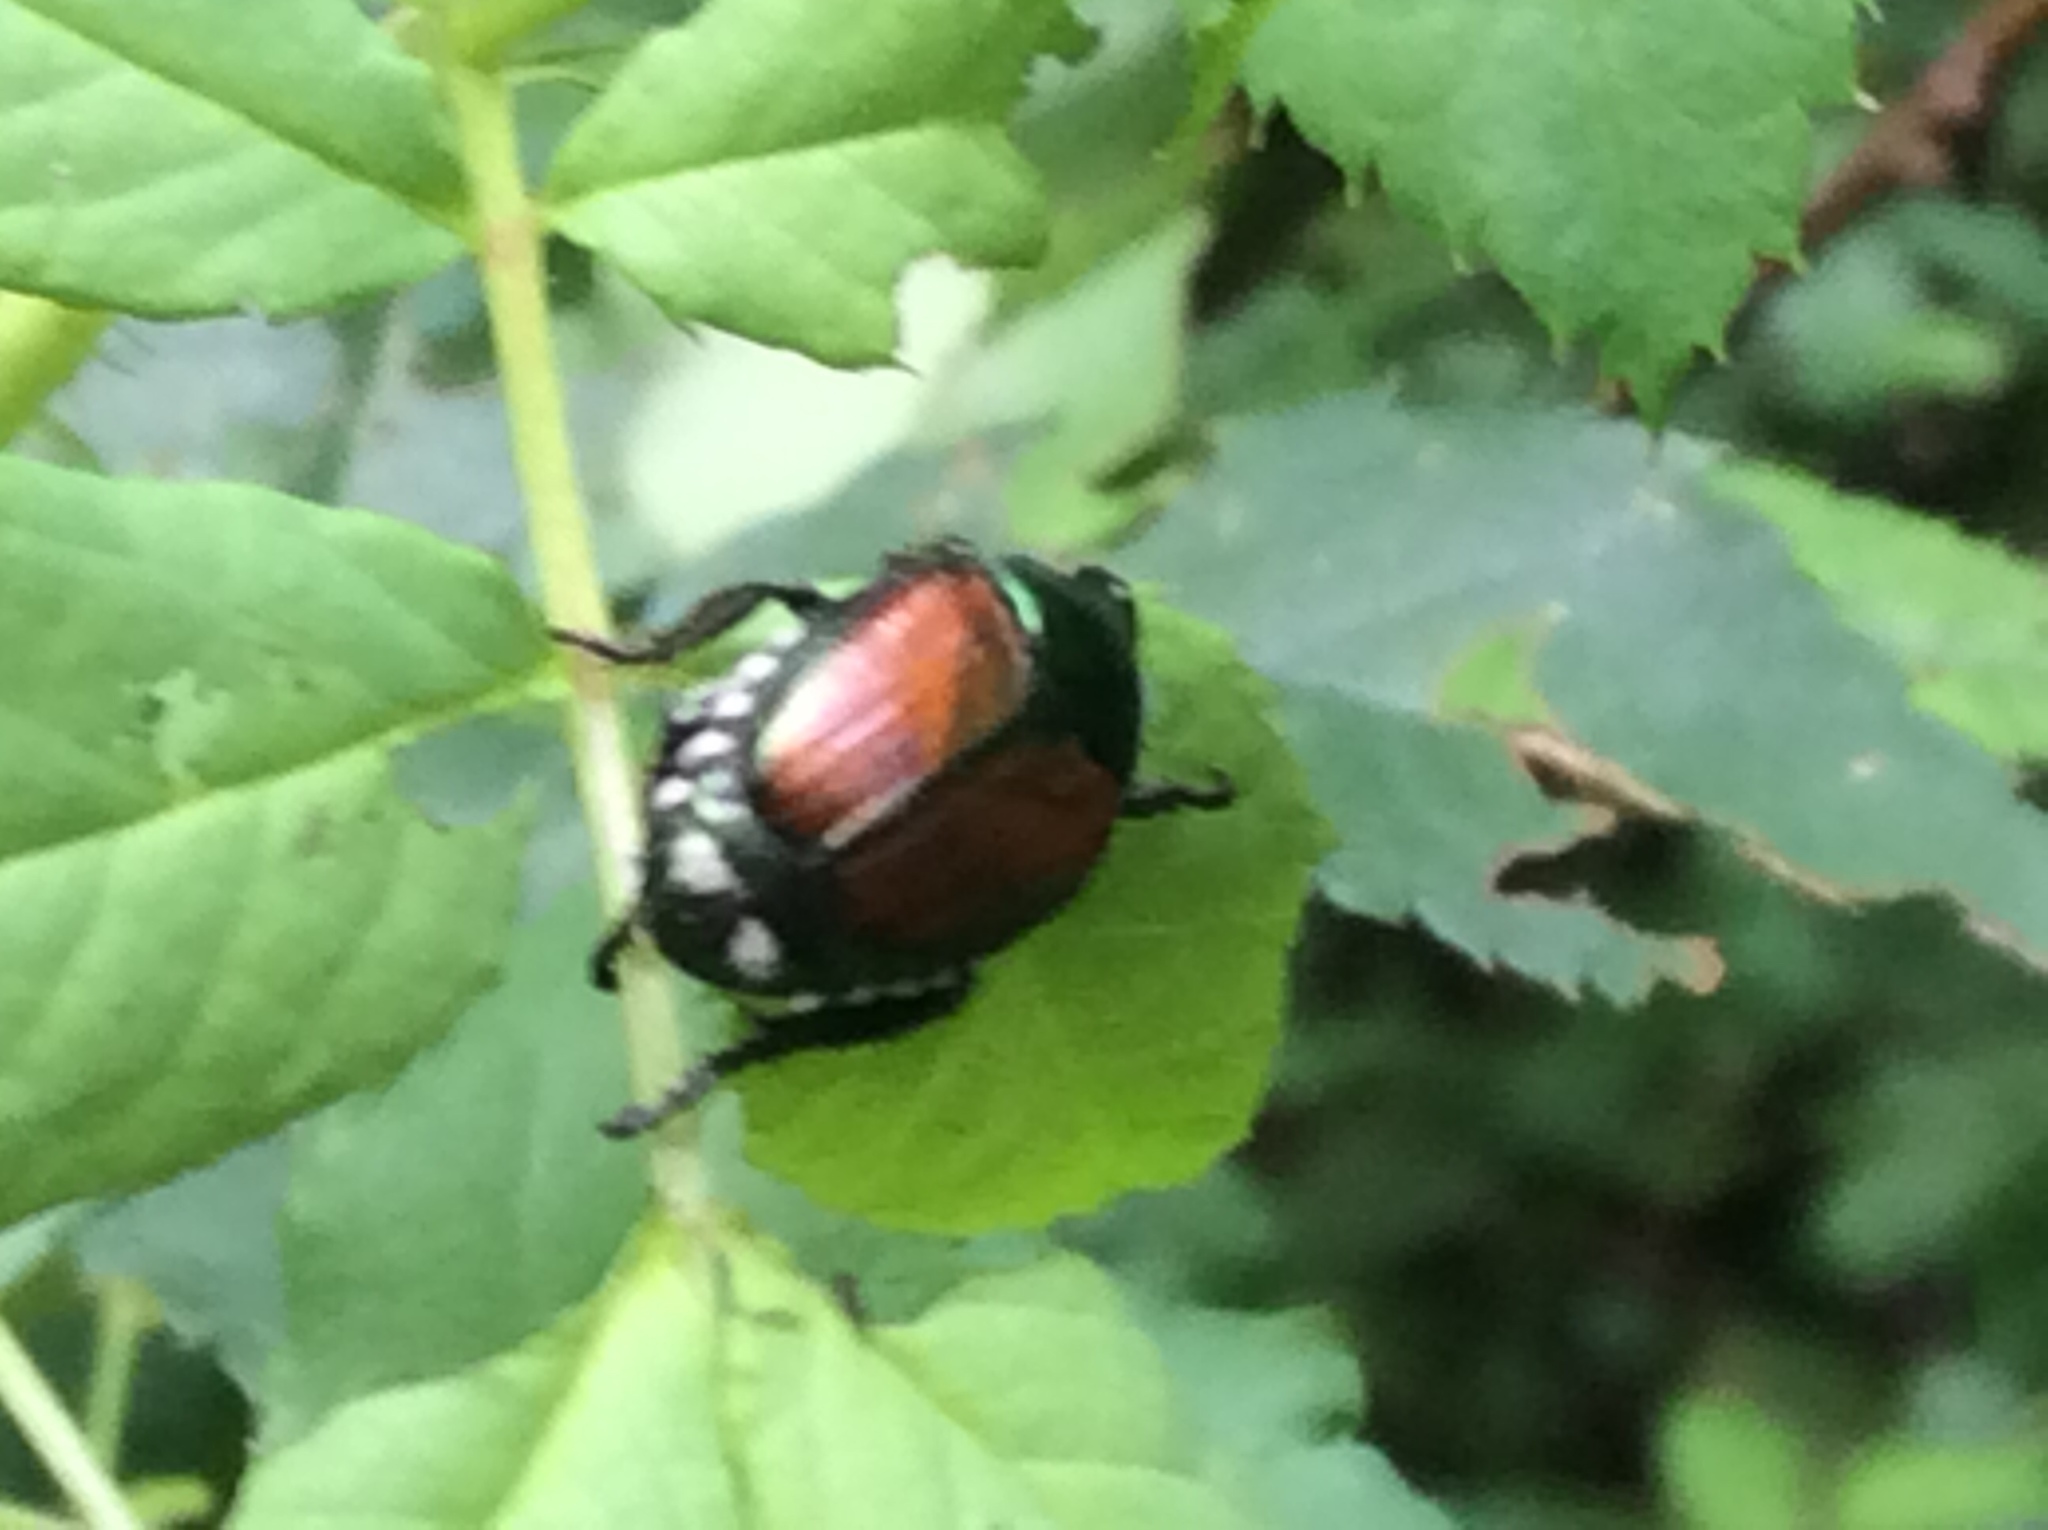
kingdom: Animalia
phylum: Arthropoda
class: Insecta
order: Coleoptera
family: Scarabaeidae
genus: Popillia
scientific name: Popillia japonica
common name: Japanese beetle
